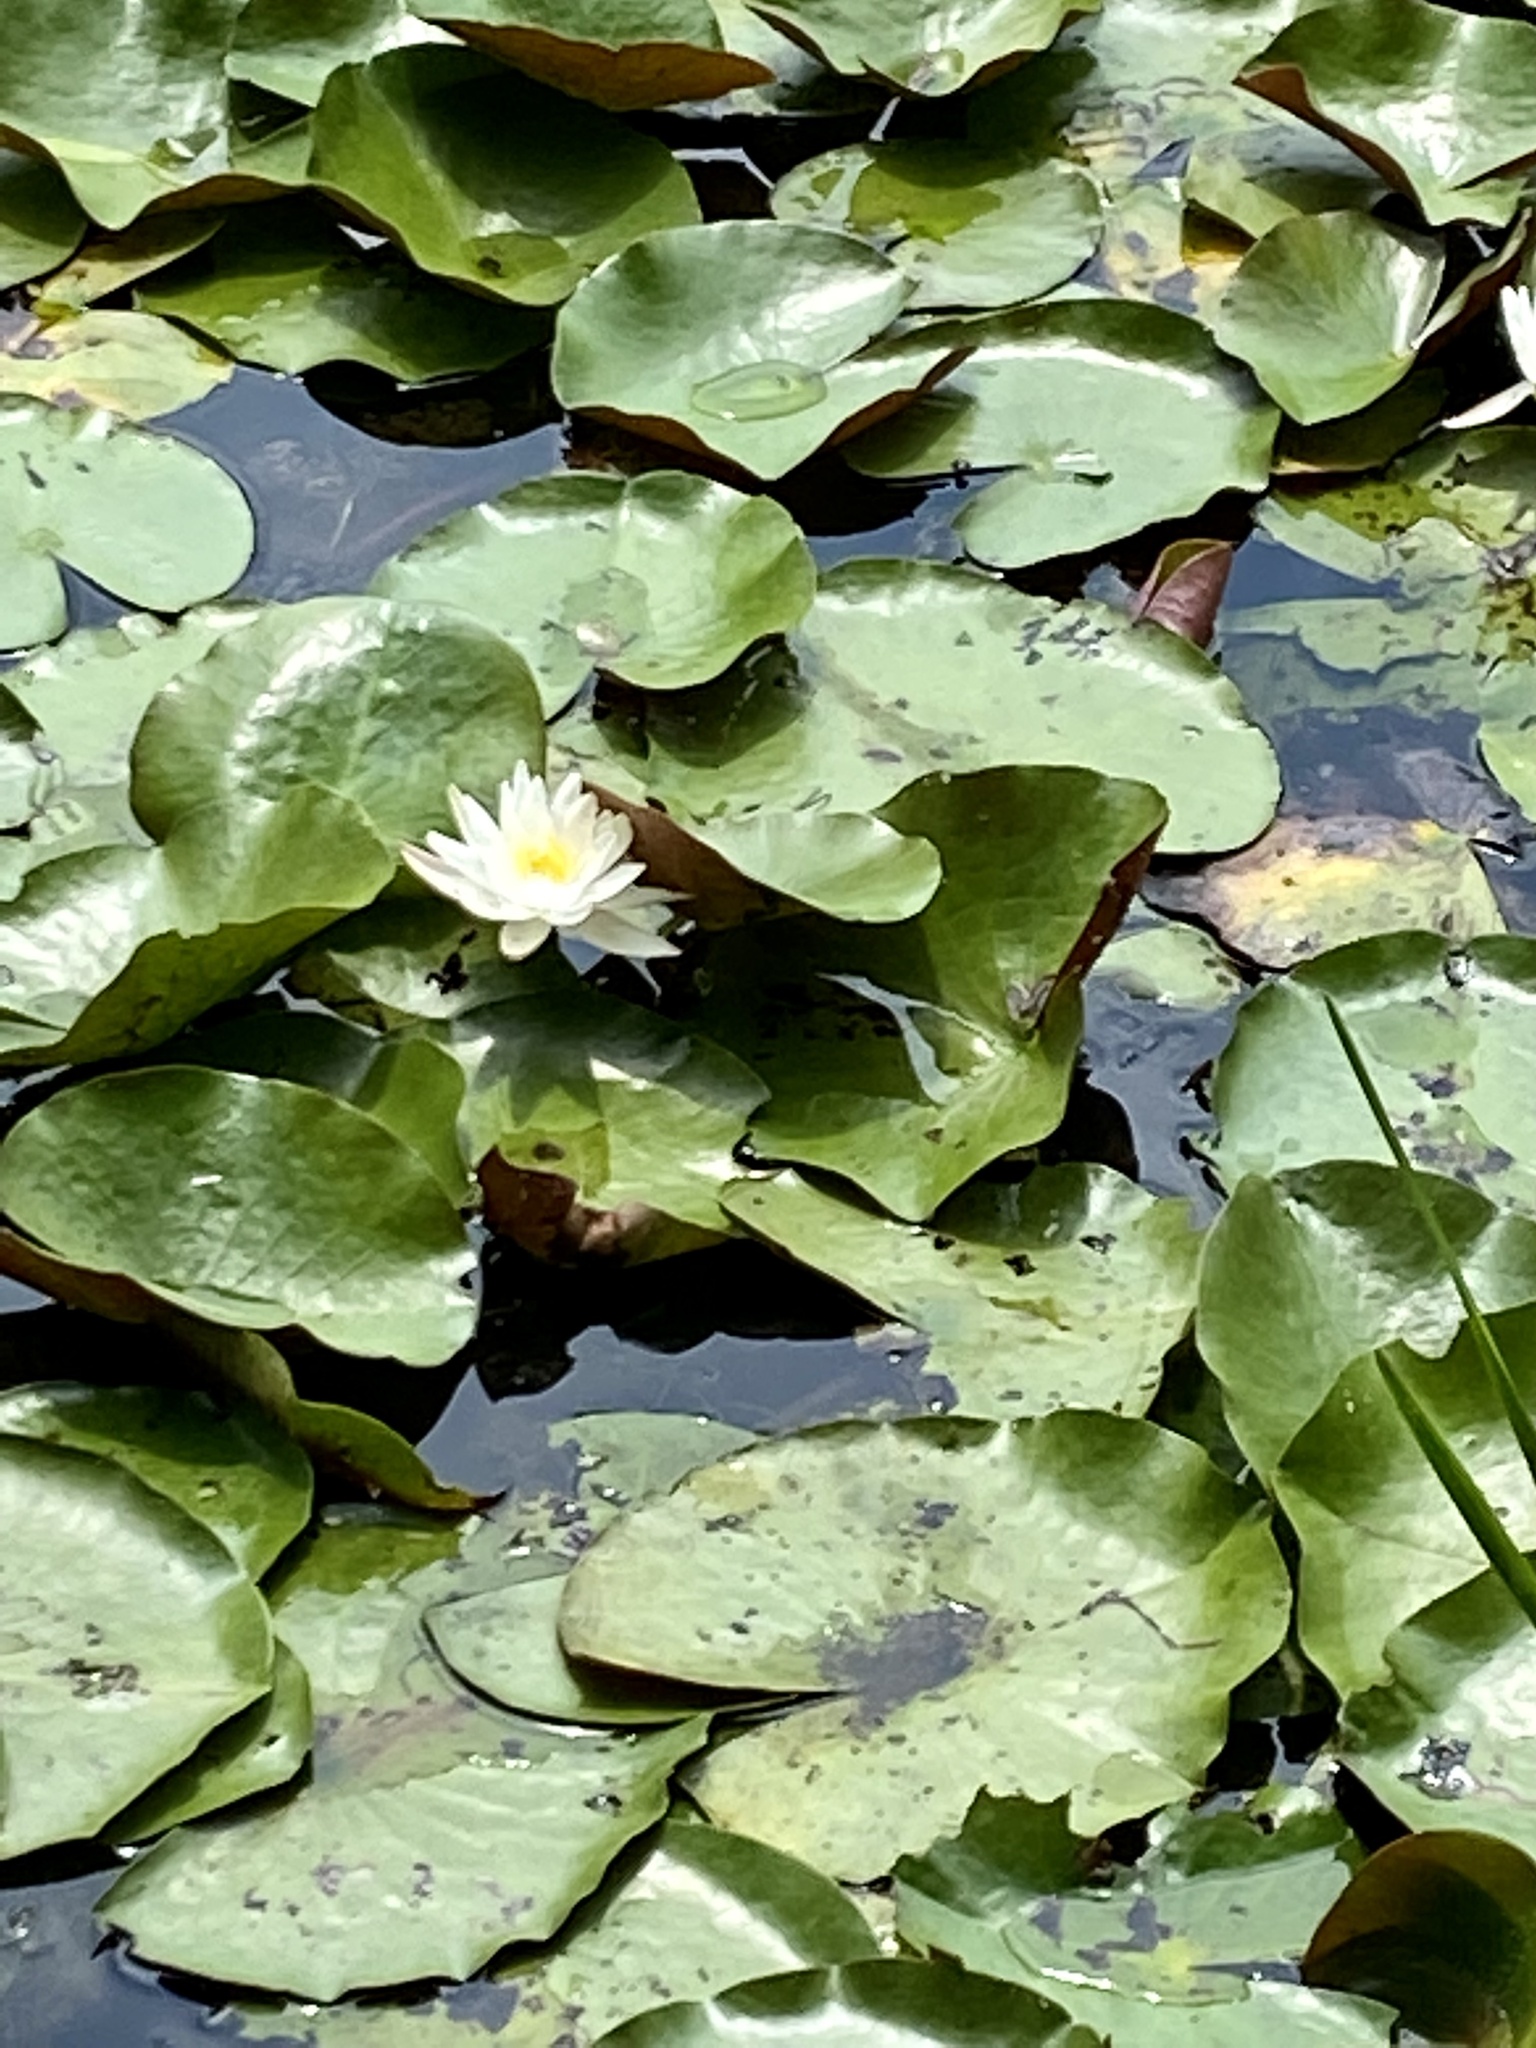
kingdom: Plantae
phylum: Tracheophyta
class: Magnoliopsida
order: Nymphaeales
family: Nymphaeaceae
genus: Nymphaea
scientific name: Nymphaea odorata
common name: Fragrant water-lily
